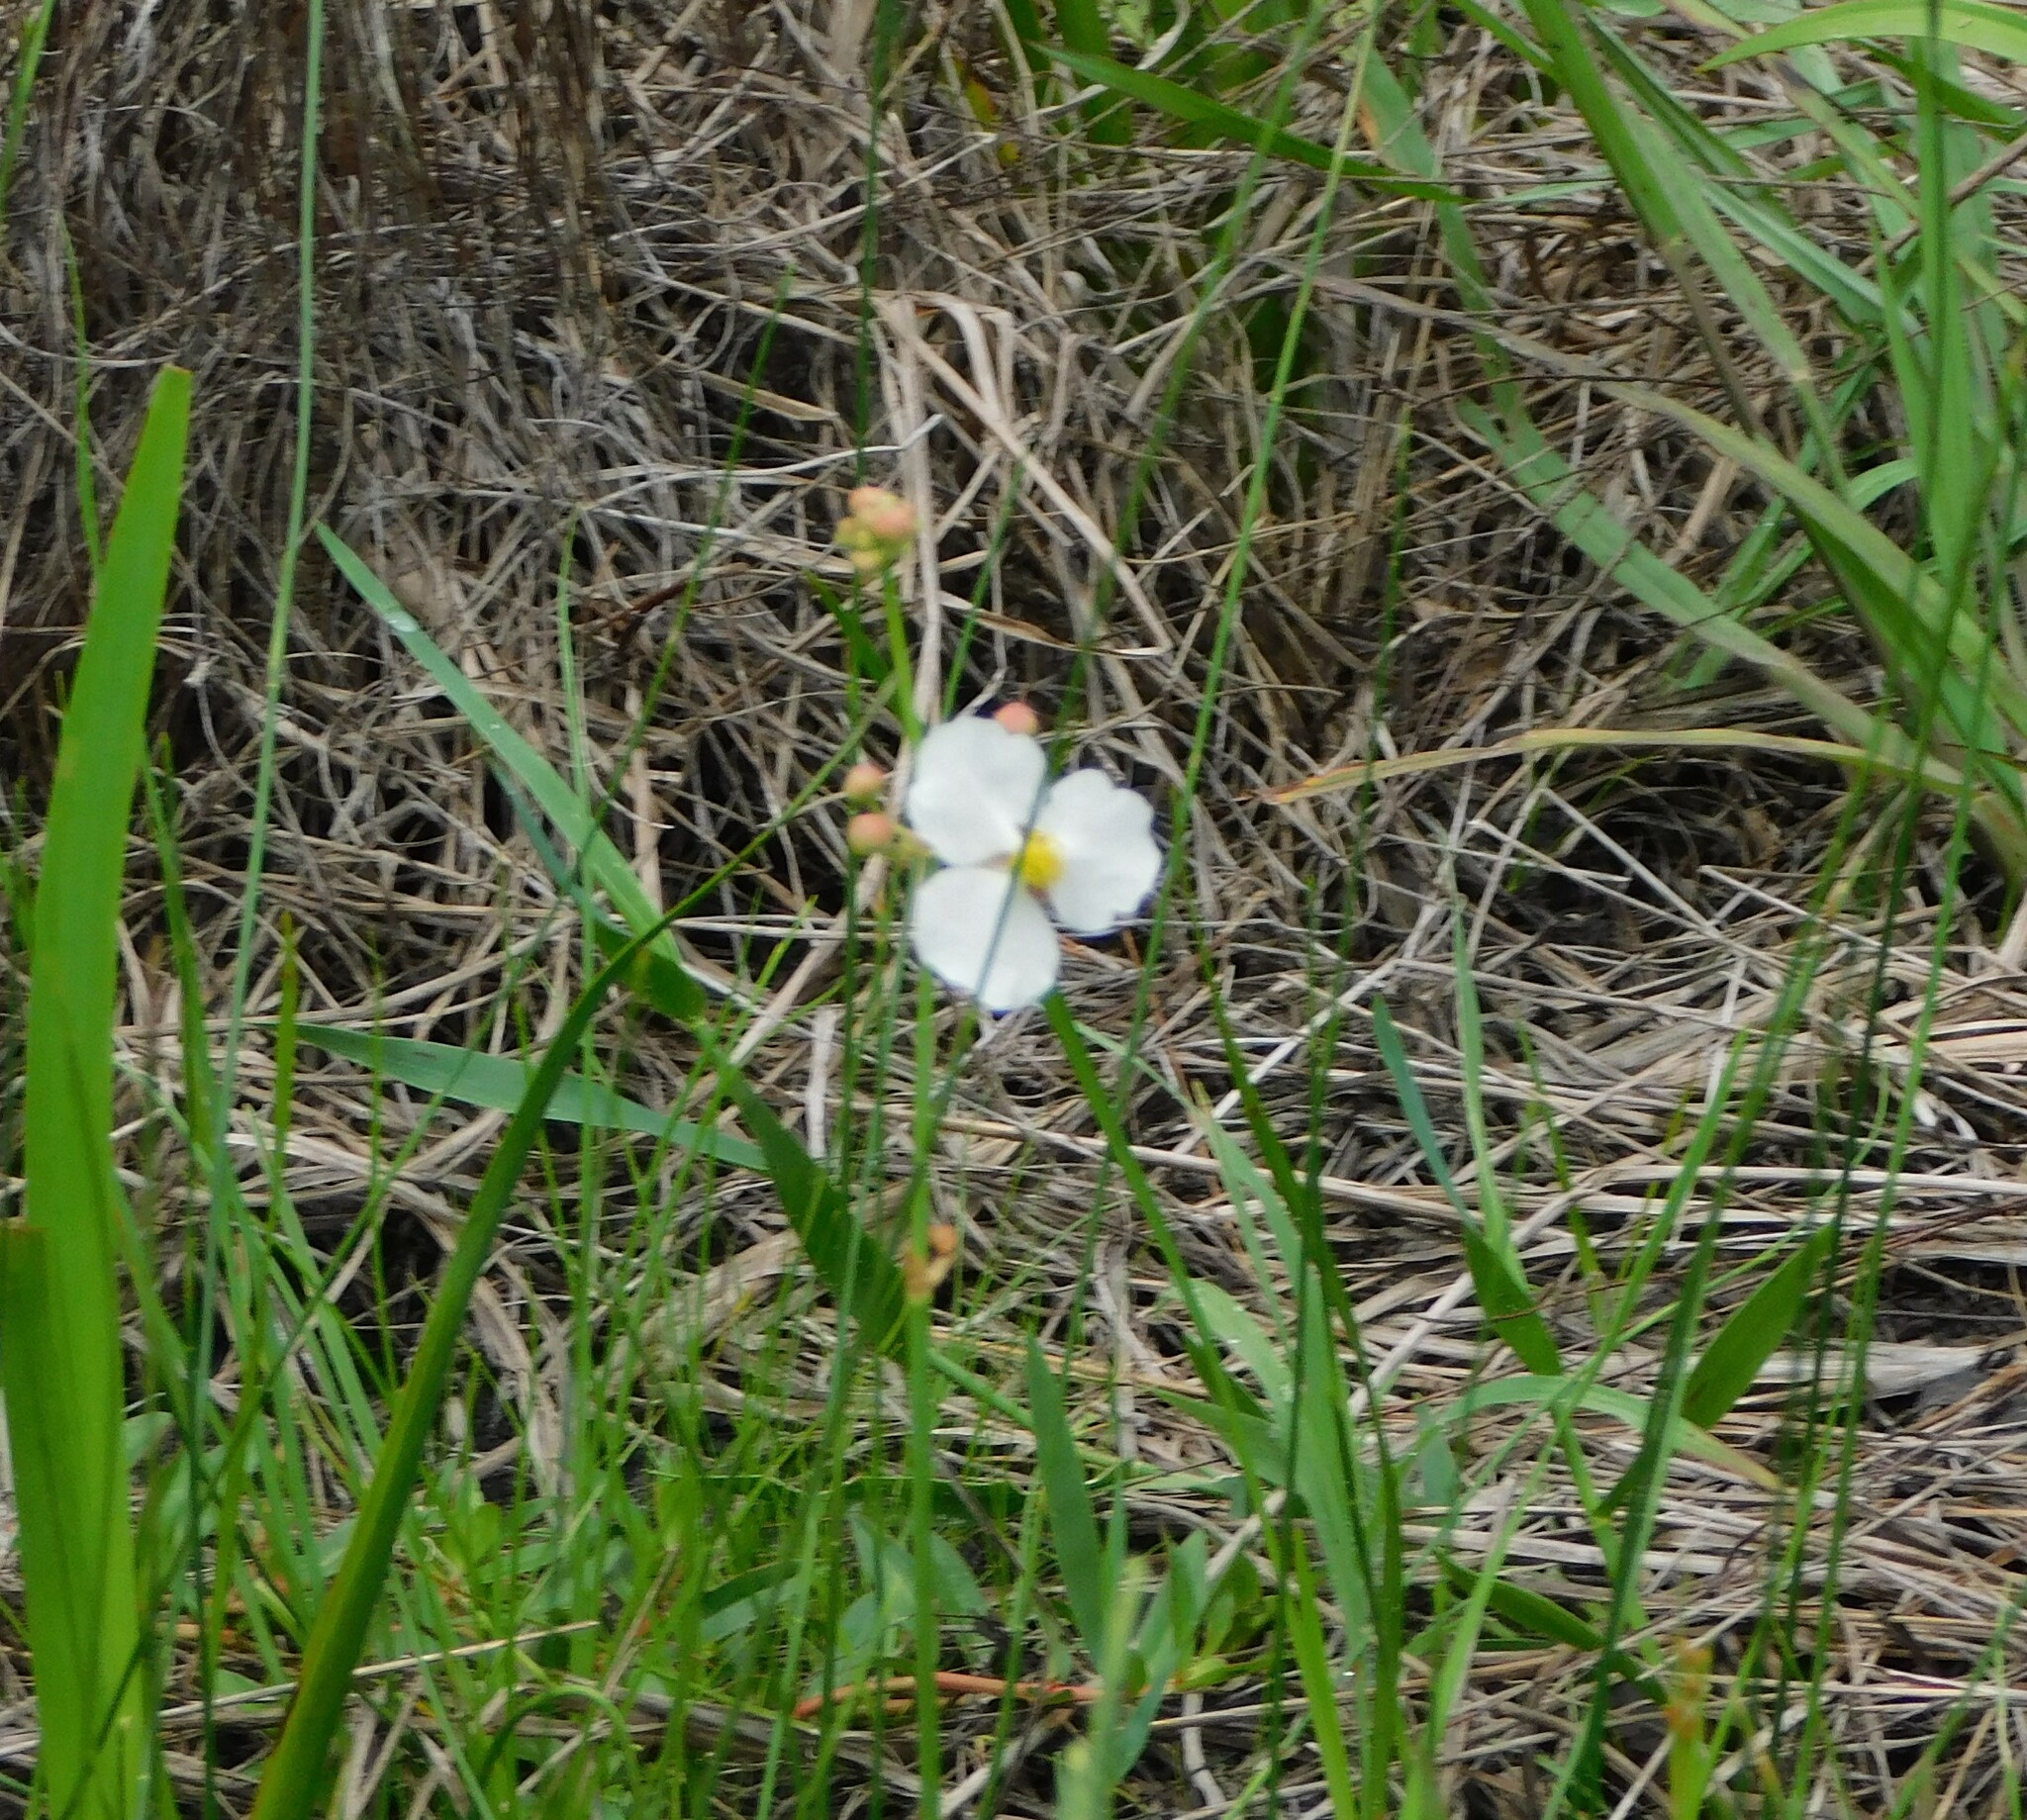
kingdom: Plantae
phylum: Tracheophyta
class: Liliopsida
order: Alismatales
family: Alismataceae
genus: Sagittaria
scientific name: Sagittaria lancifolia
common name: Lance-leaf arrowhead
